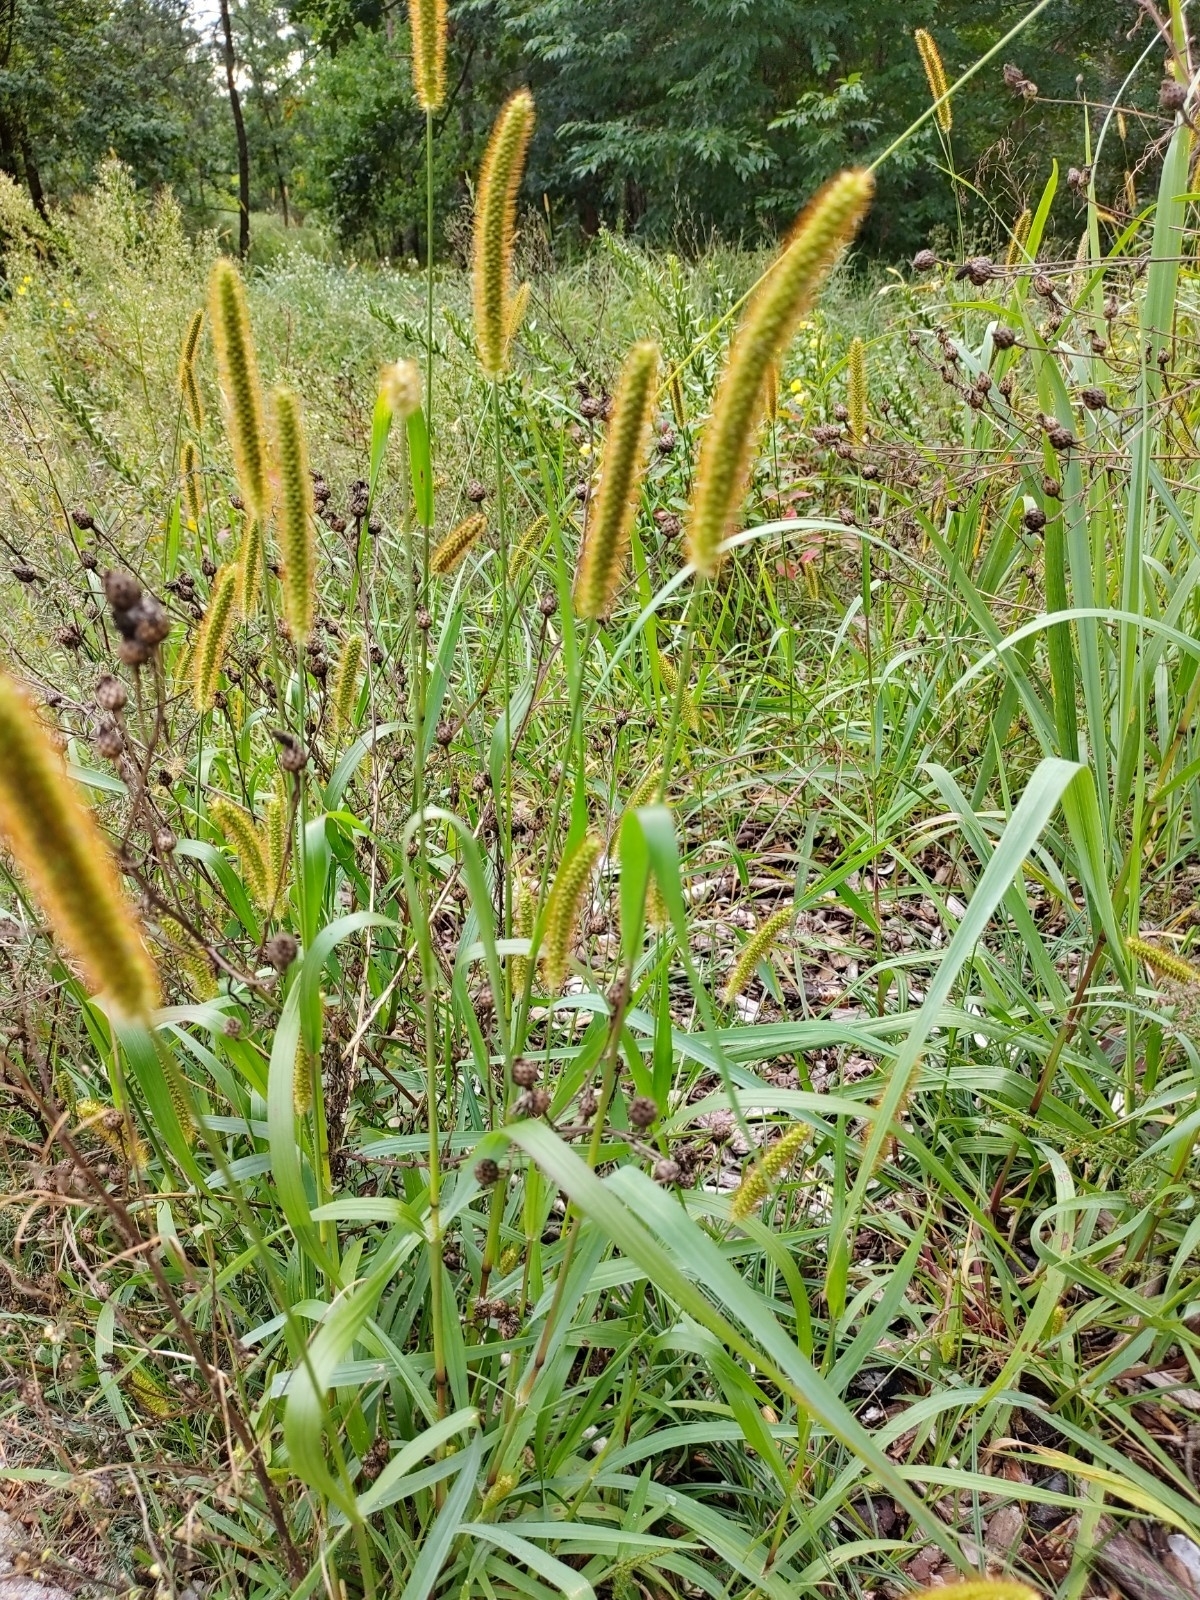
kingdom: Plantae
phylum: Tracheophyta
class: Liliopsida
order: Poales
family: Poaceae
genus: Setaria
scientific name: Setaria pumila
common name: Yellow bristle-grass
